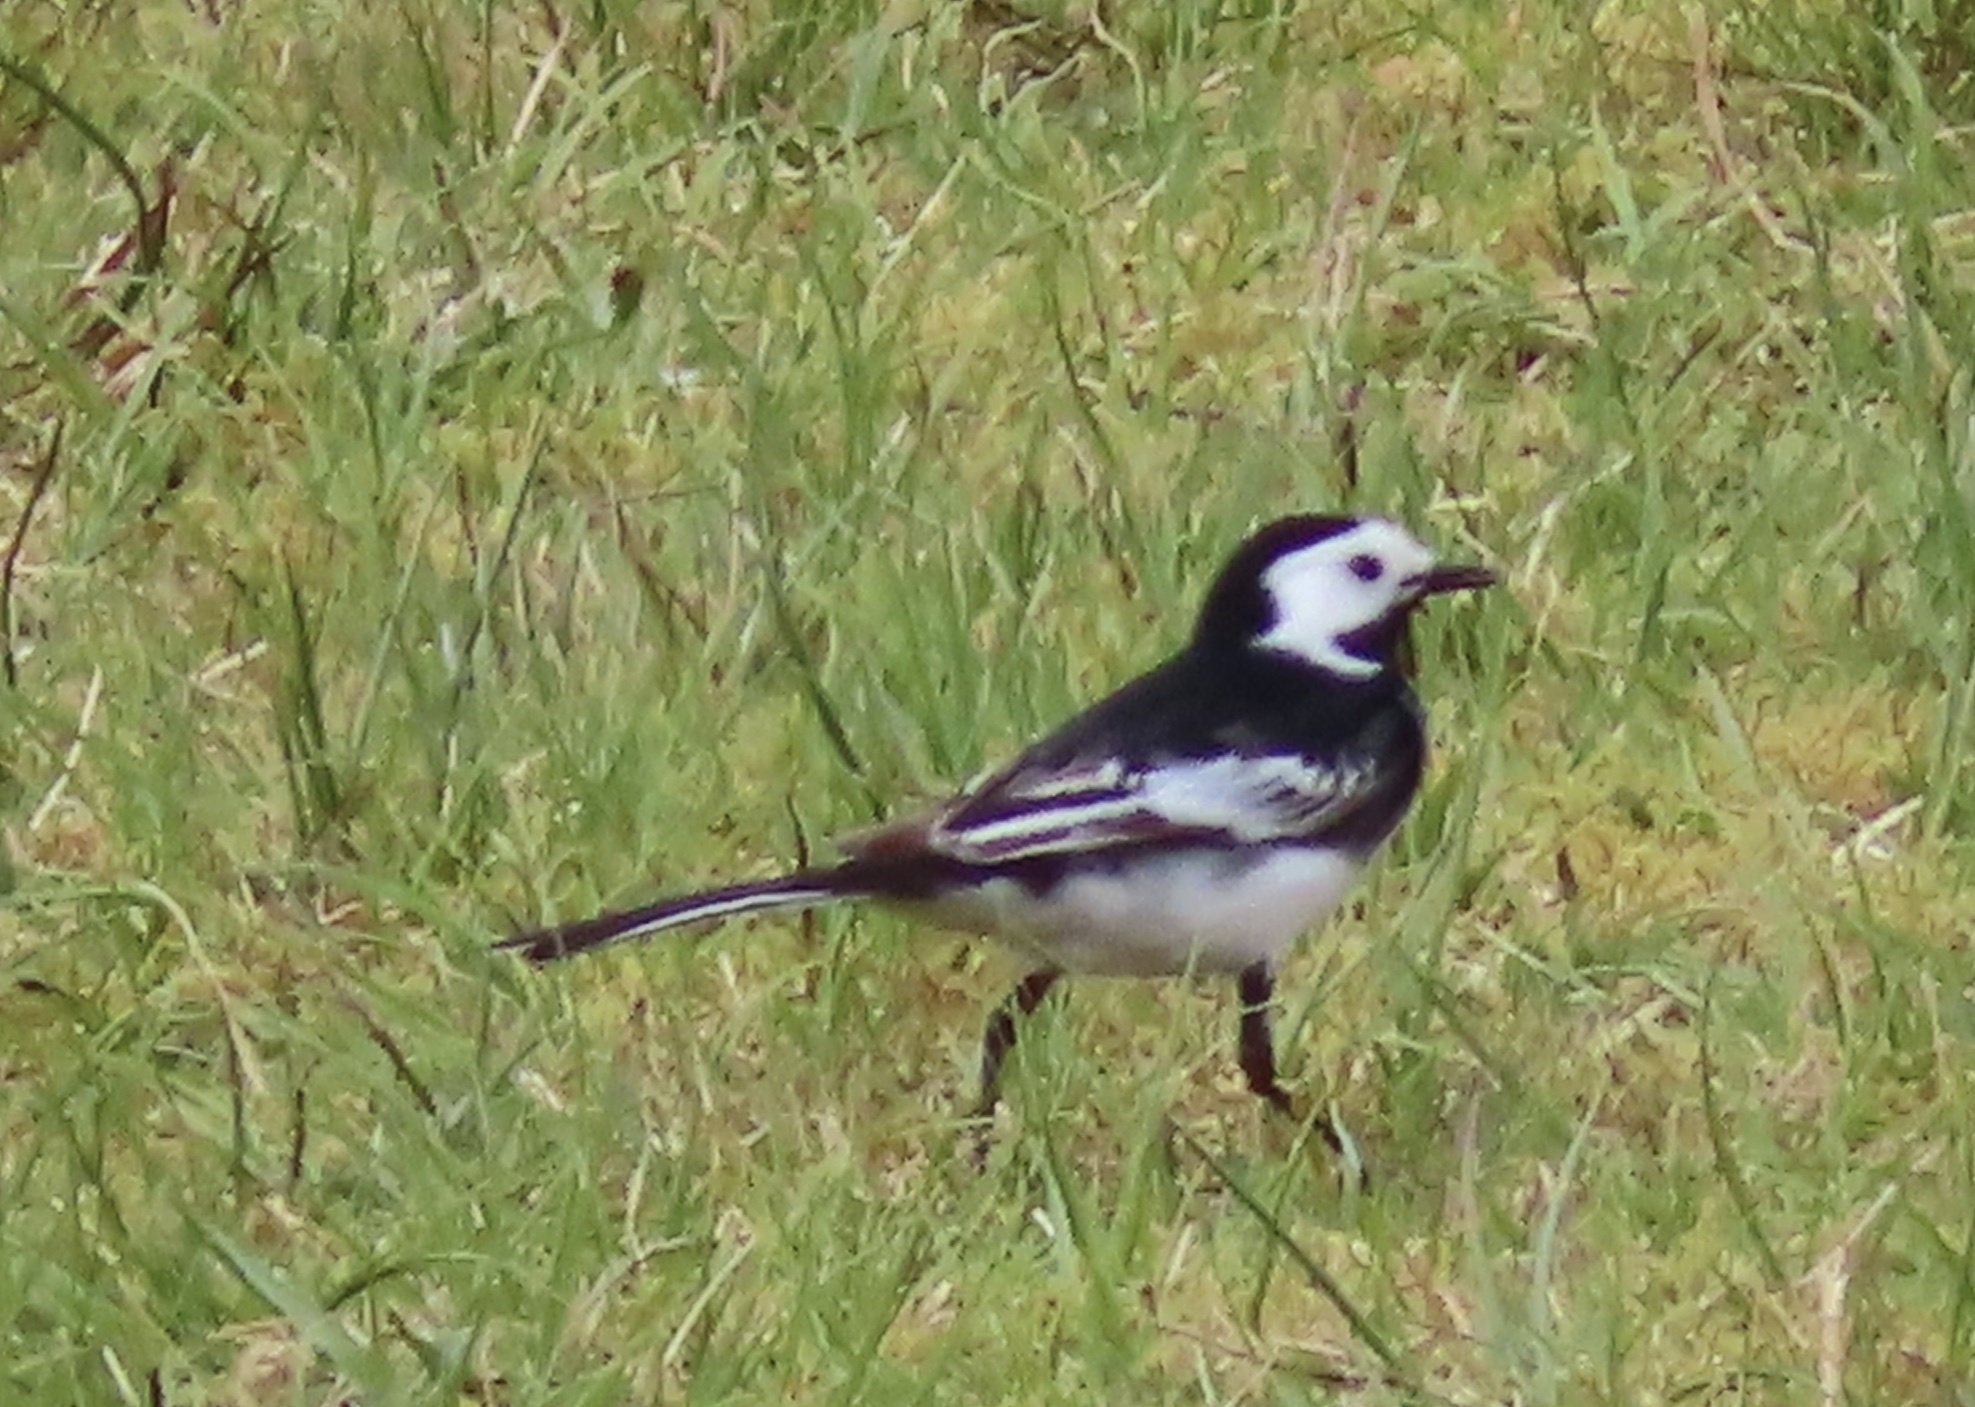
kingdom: Animalia
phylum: Chordata
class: Aves
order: Passeriformes
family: Motacillidae
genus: Motacilla
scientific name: Motacilla alba
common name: White wagtail
